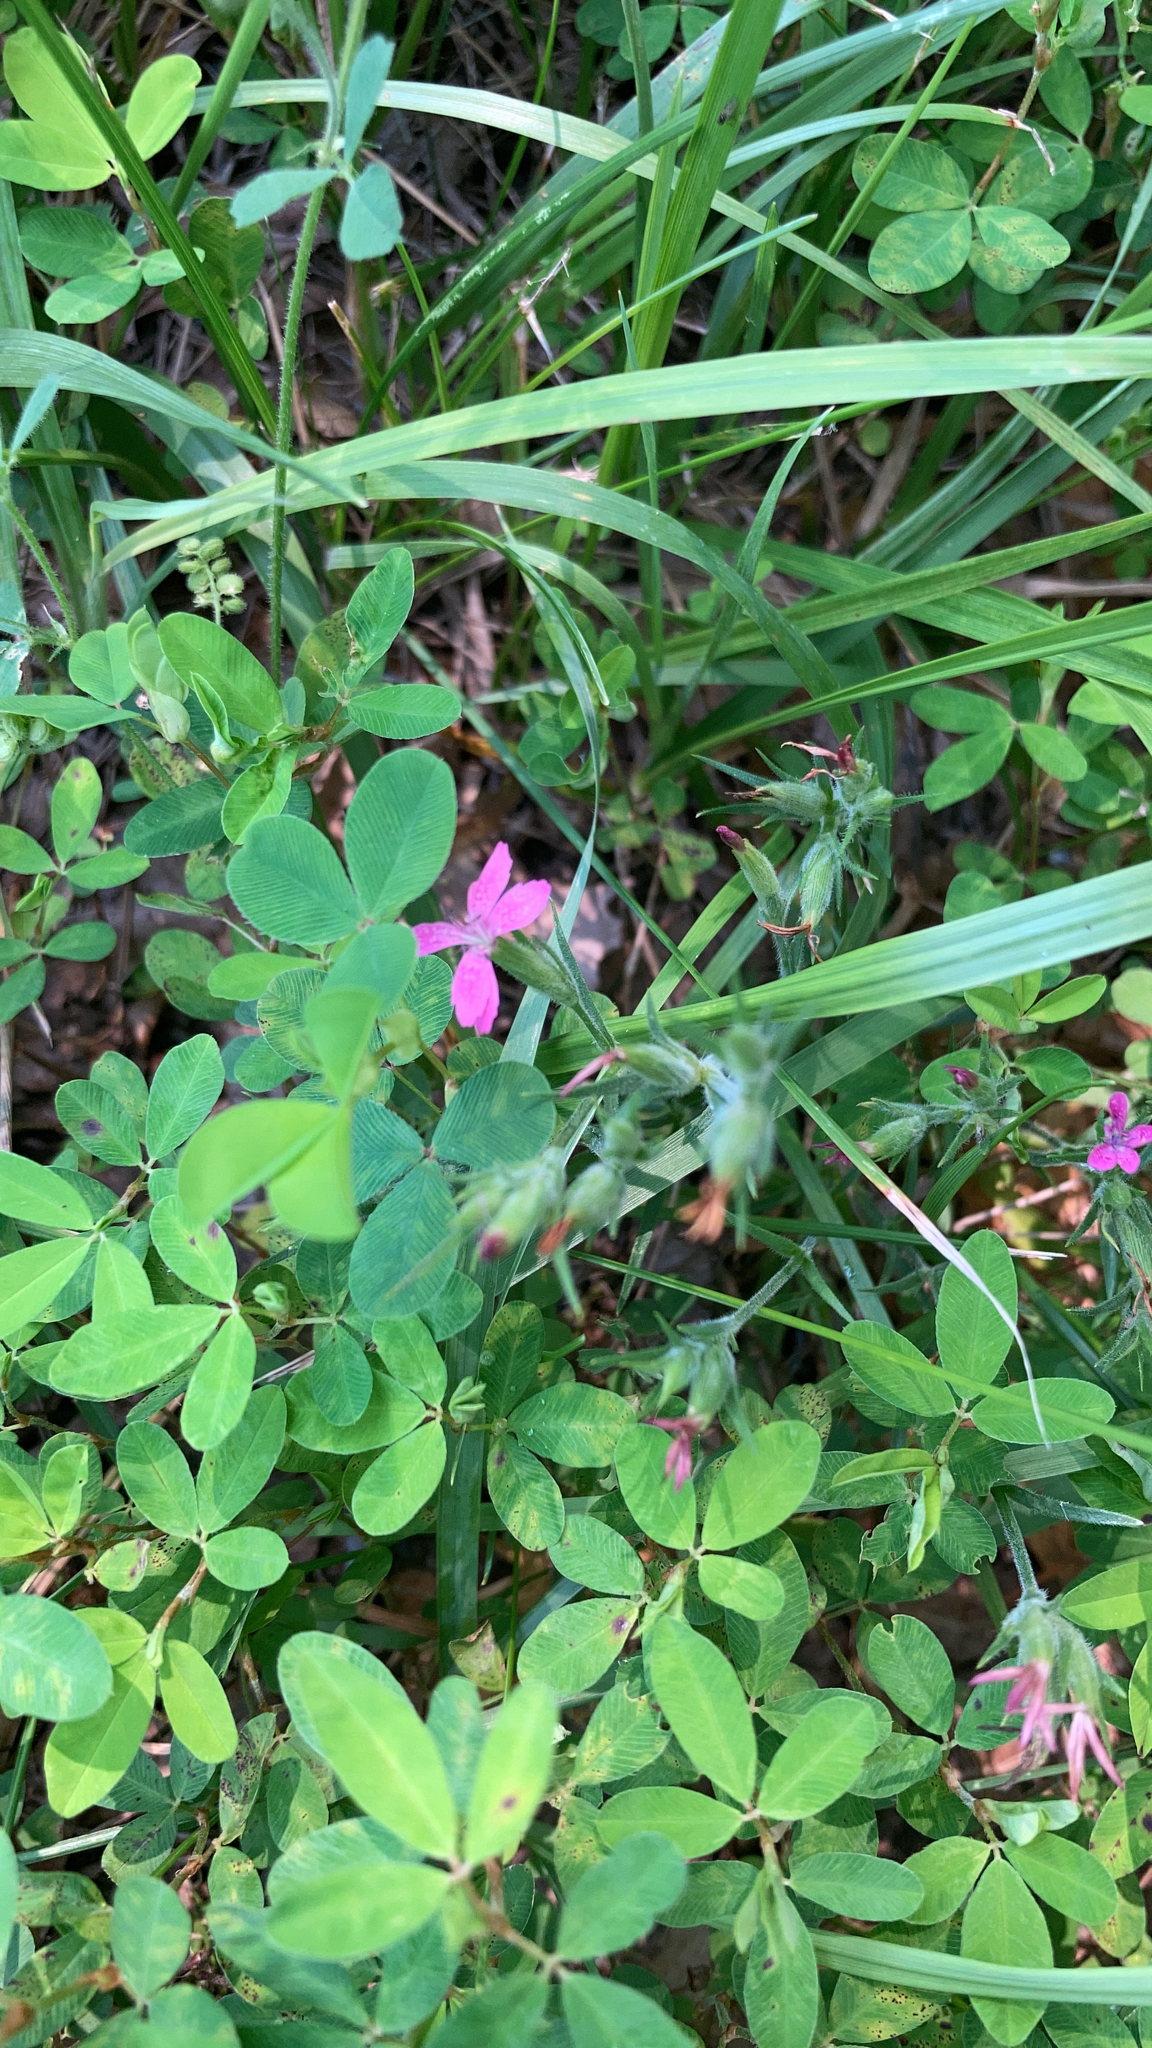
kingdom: Plantae
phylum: Tracheophyta
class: Magnoliopsida
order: Caryophyllales
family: Caryophyllaceae
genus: Dianthus
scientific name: Dianthus armeria
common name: Deptford pink
